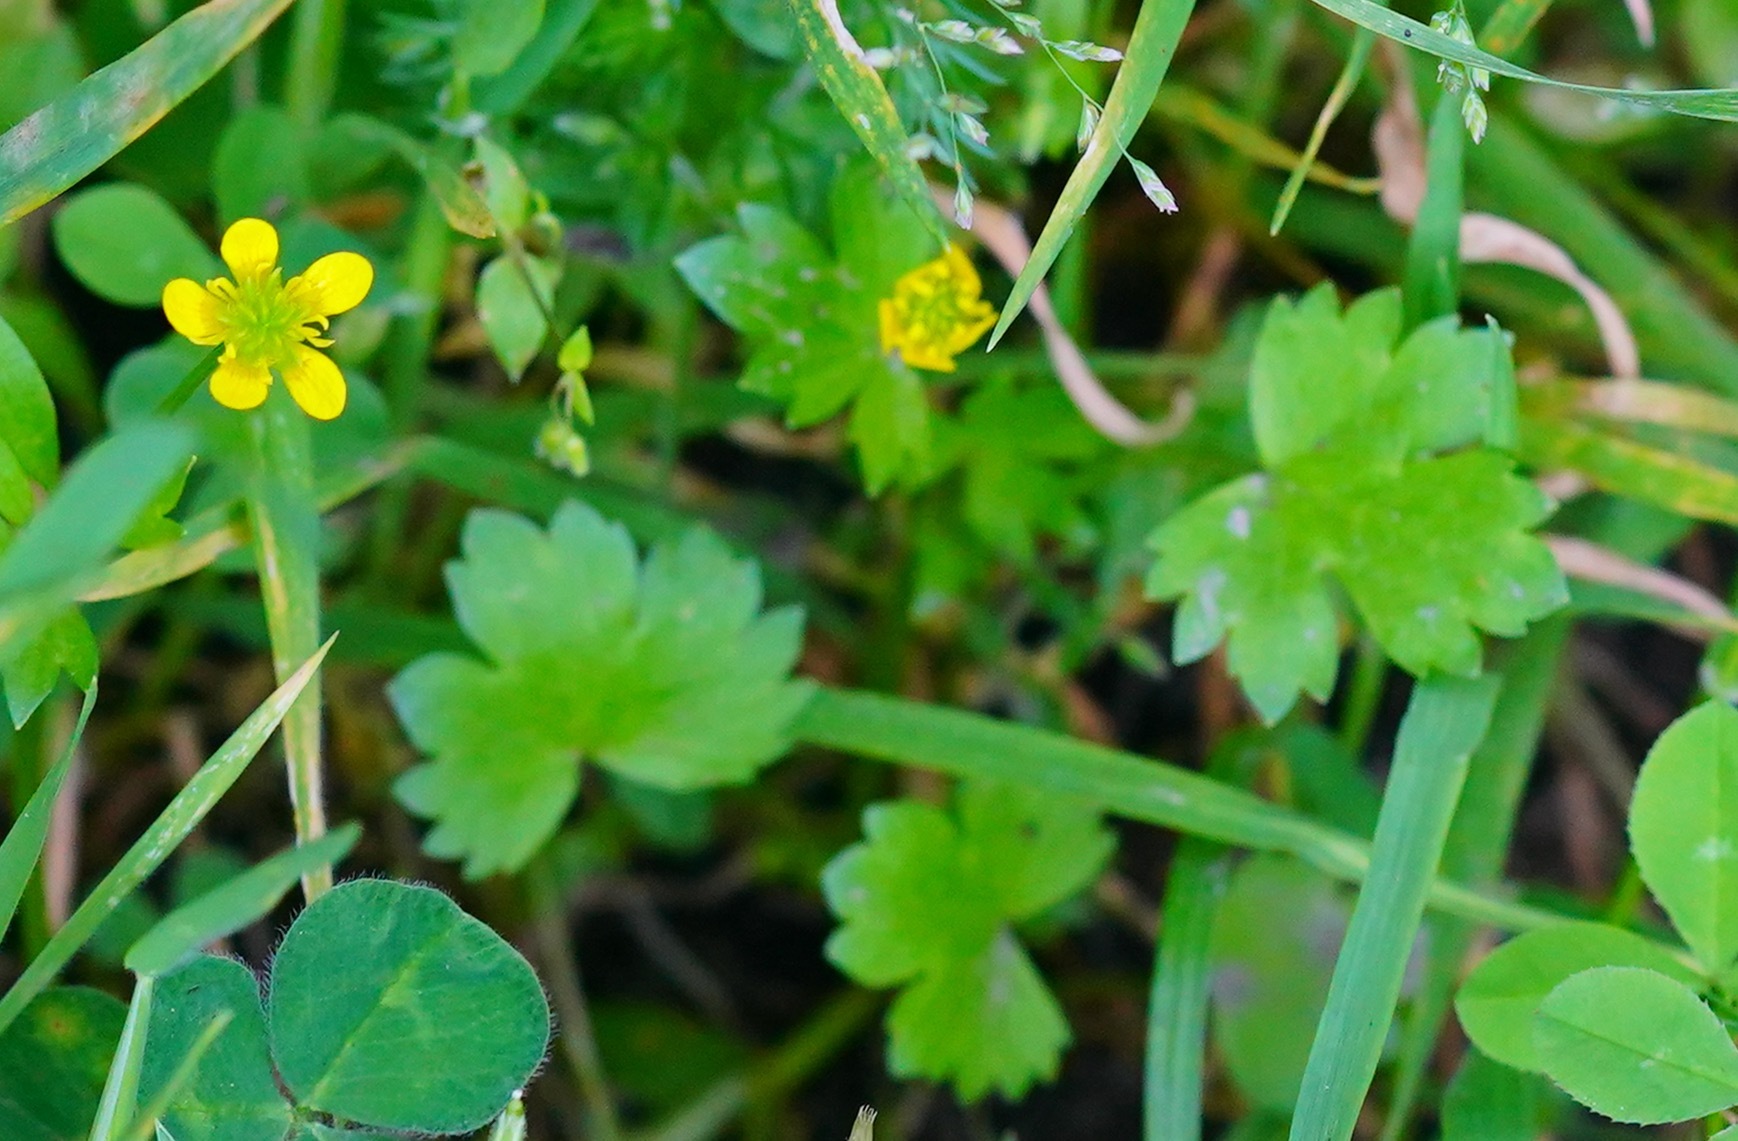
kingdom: Plantae
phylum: Tracheophyta
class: Magnoliopsida
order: Ranunculales
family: Ranunculaceae
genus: Ranunculus
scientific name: Ranunculus muricatus
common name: Rough-fruited buttercup
